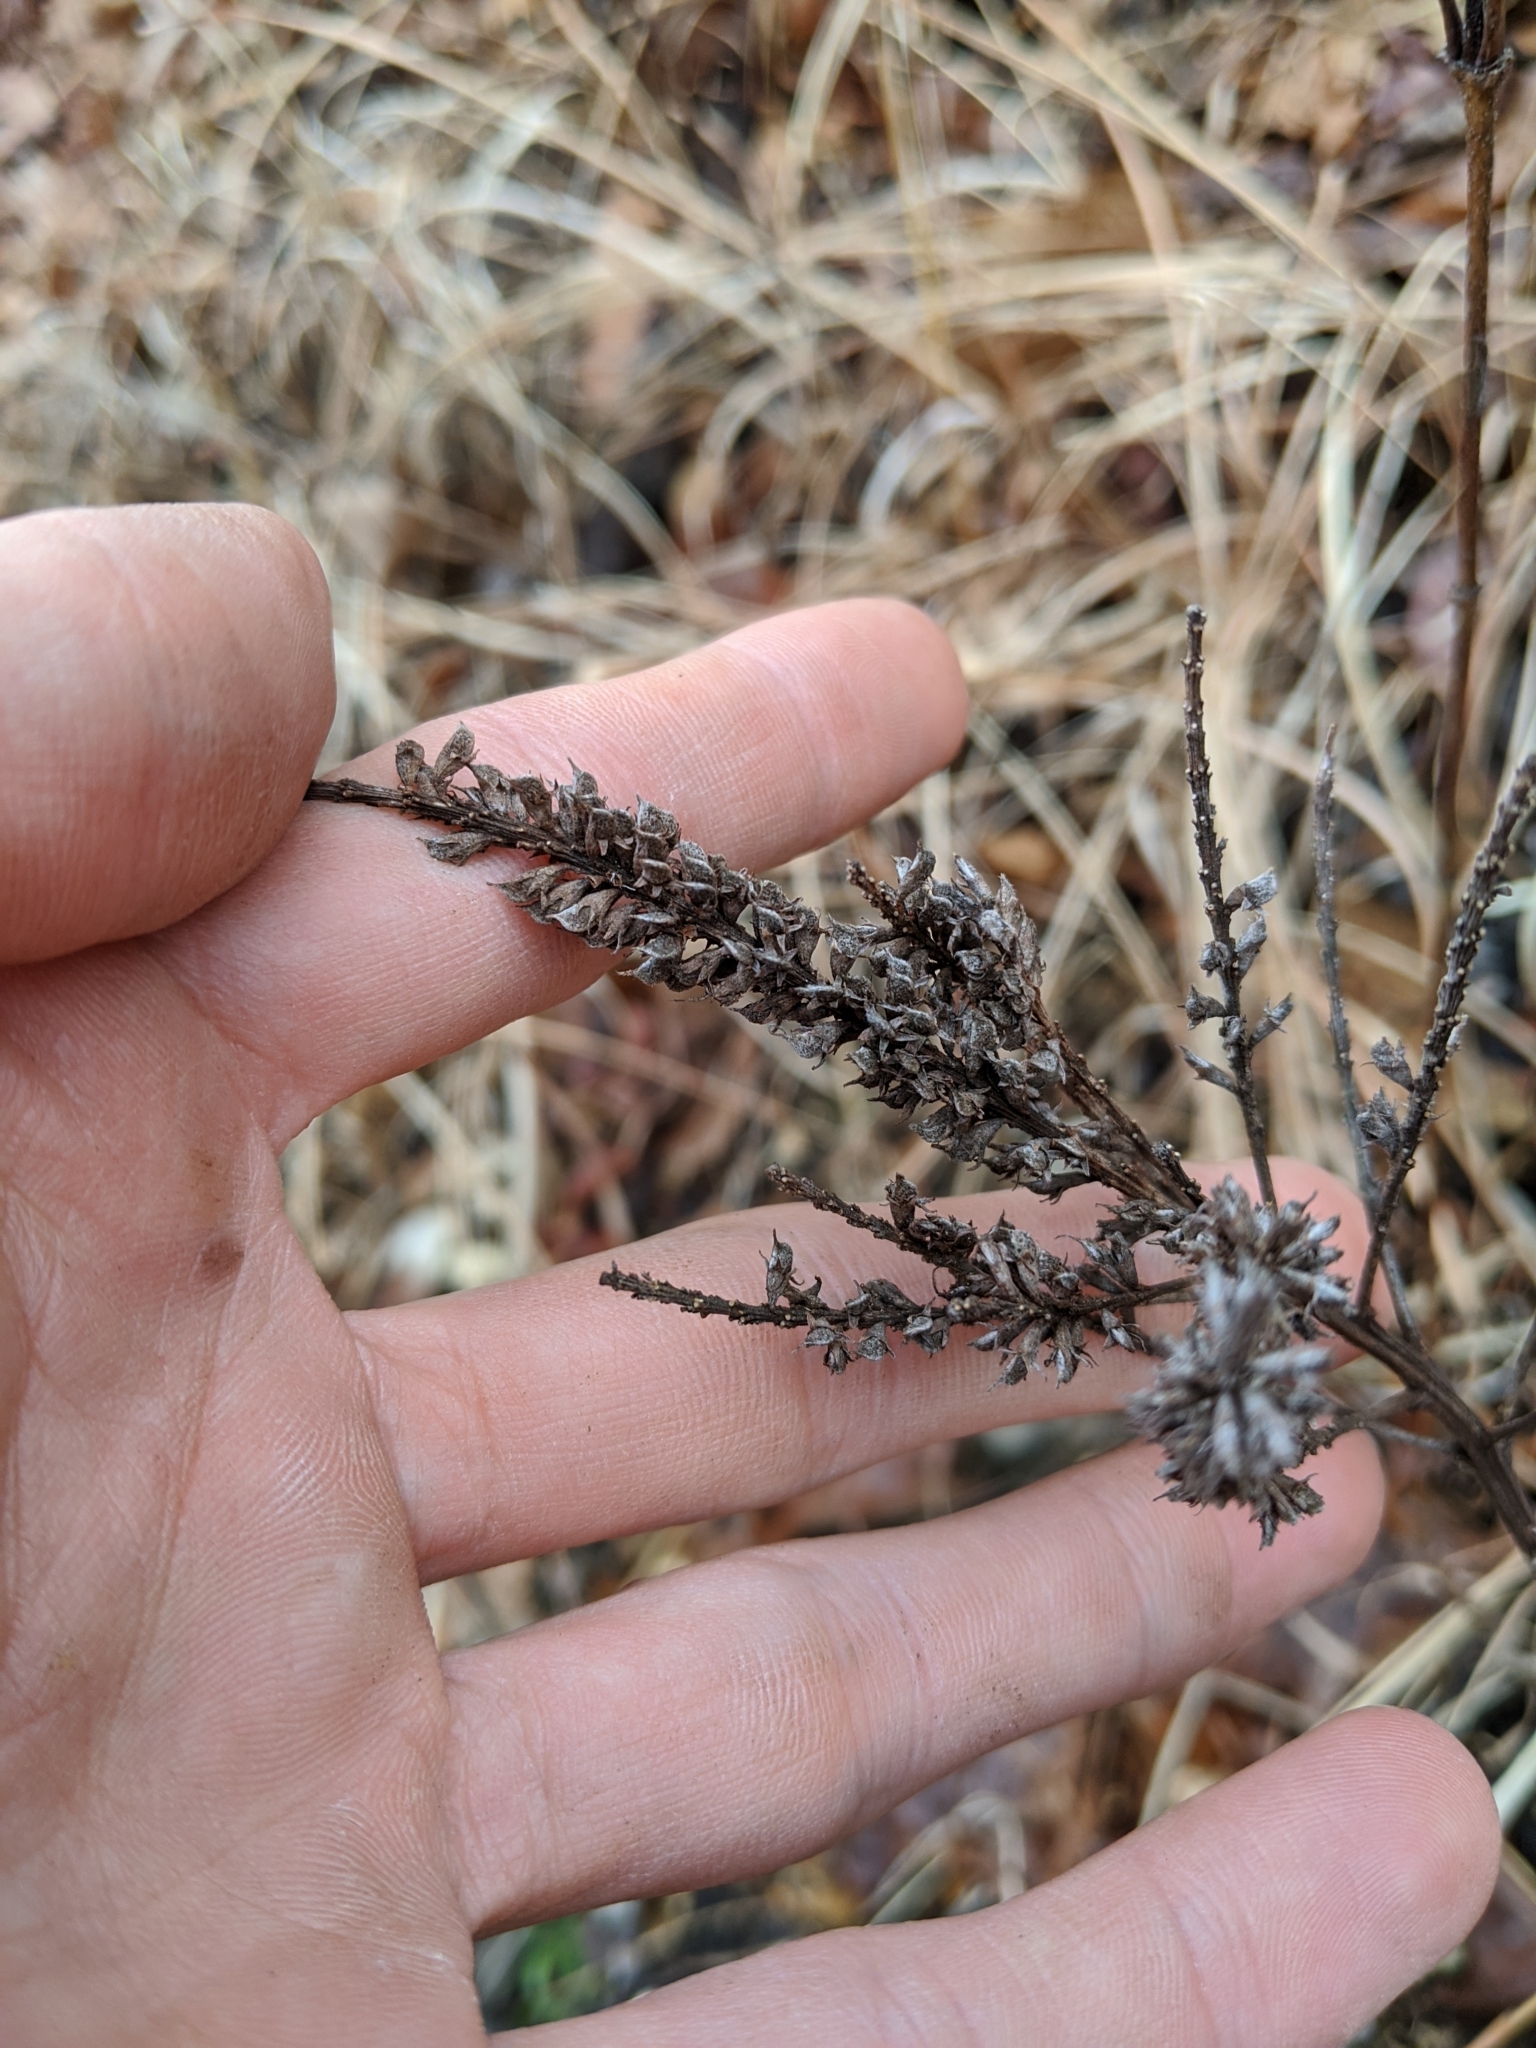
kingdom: Plantae
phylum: Tracheophyta
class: Magnoliopsida
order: Fabales
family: Fabaceae
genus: Amorpha
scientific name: Amorpha canescens
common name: Leadplant
